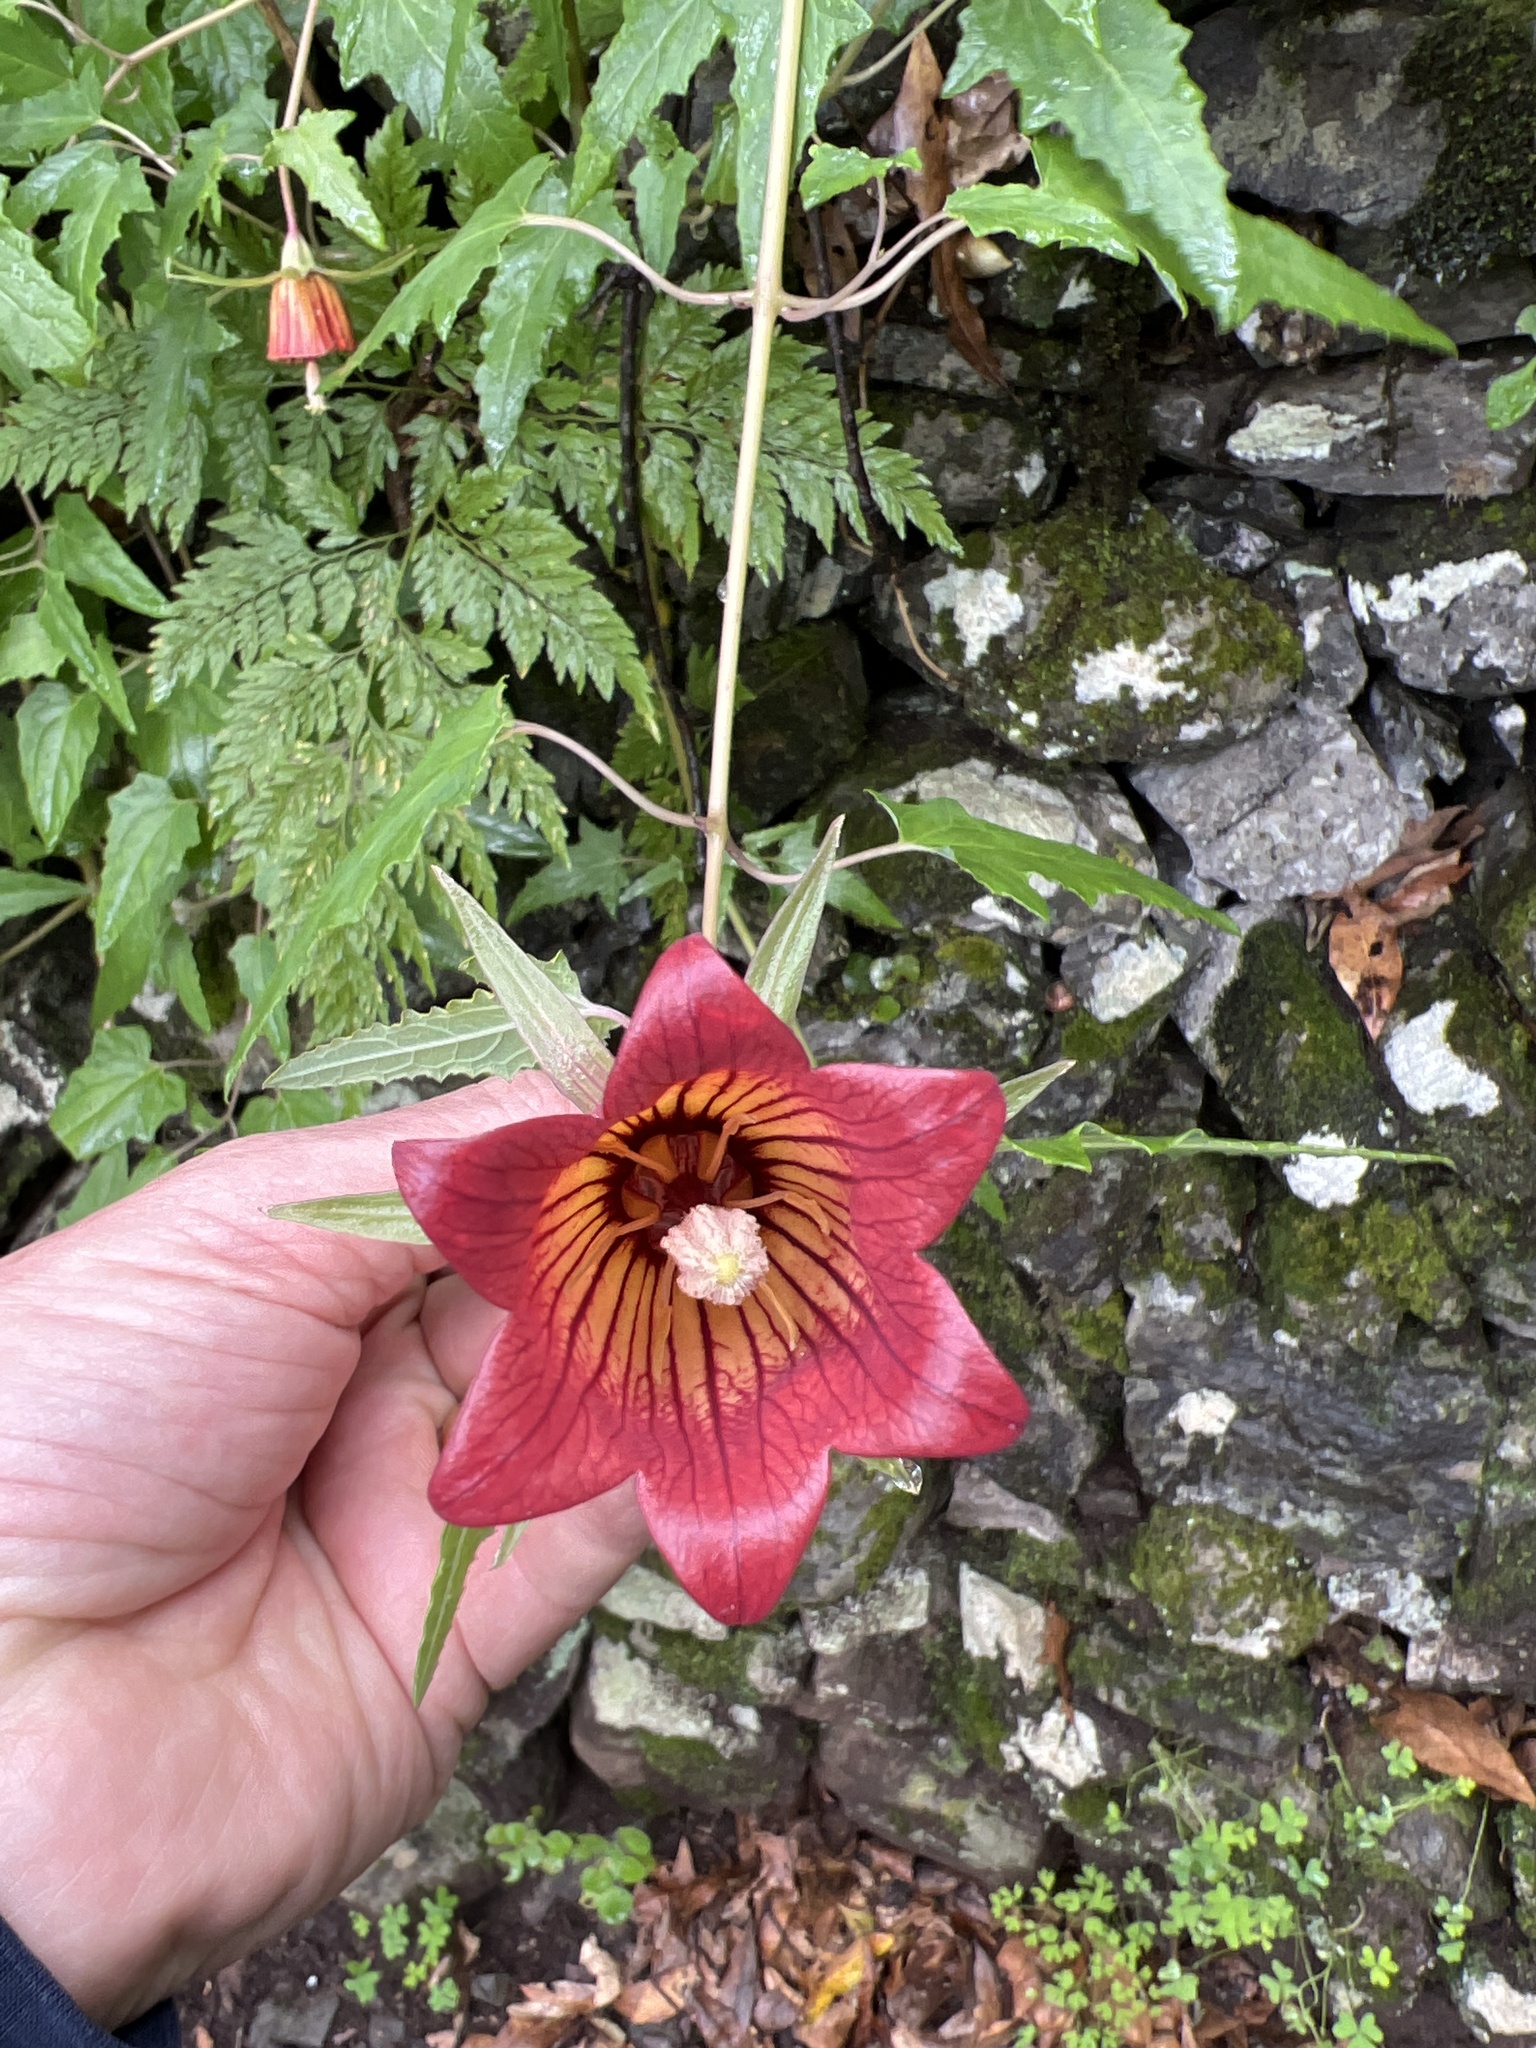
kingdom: Plantae
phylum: Tracheophyta
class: Magnoliopsida
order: Asterales
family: Campanulaceae
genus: Canarina
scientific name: Canarina canariensis
